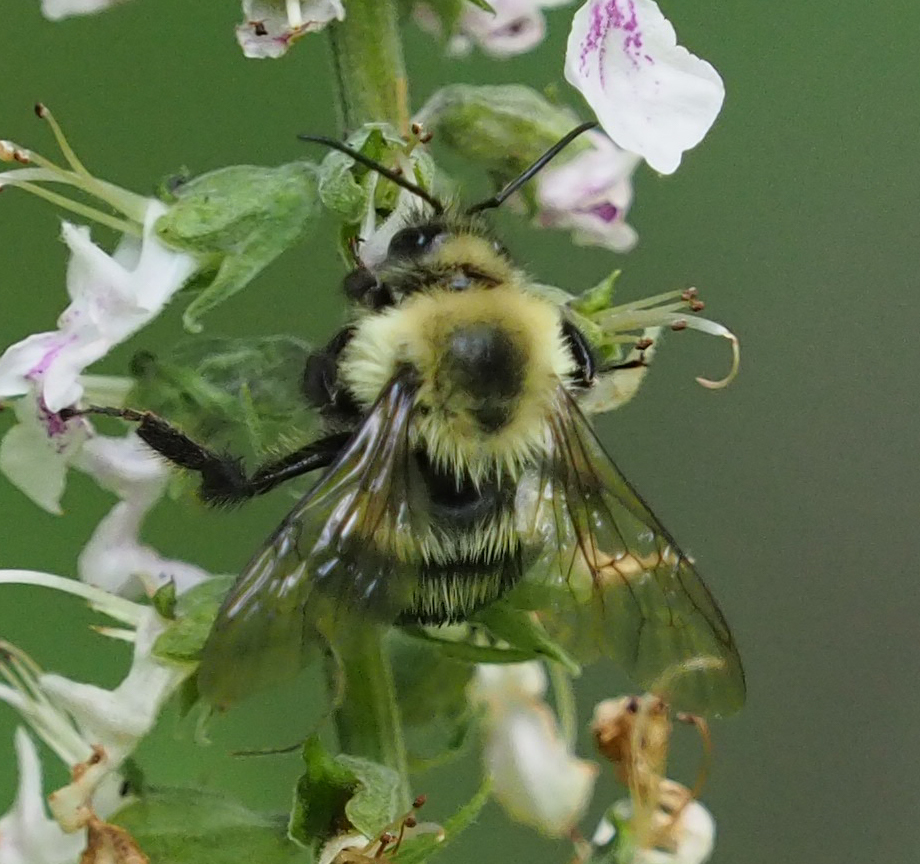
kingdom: Animalia
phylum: Arthropoda
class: Insecta
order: Hymenoptera
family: Apidae
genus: Bombus
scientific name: Bombus bimaculatus
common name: Two-spotted bumble bee
